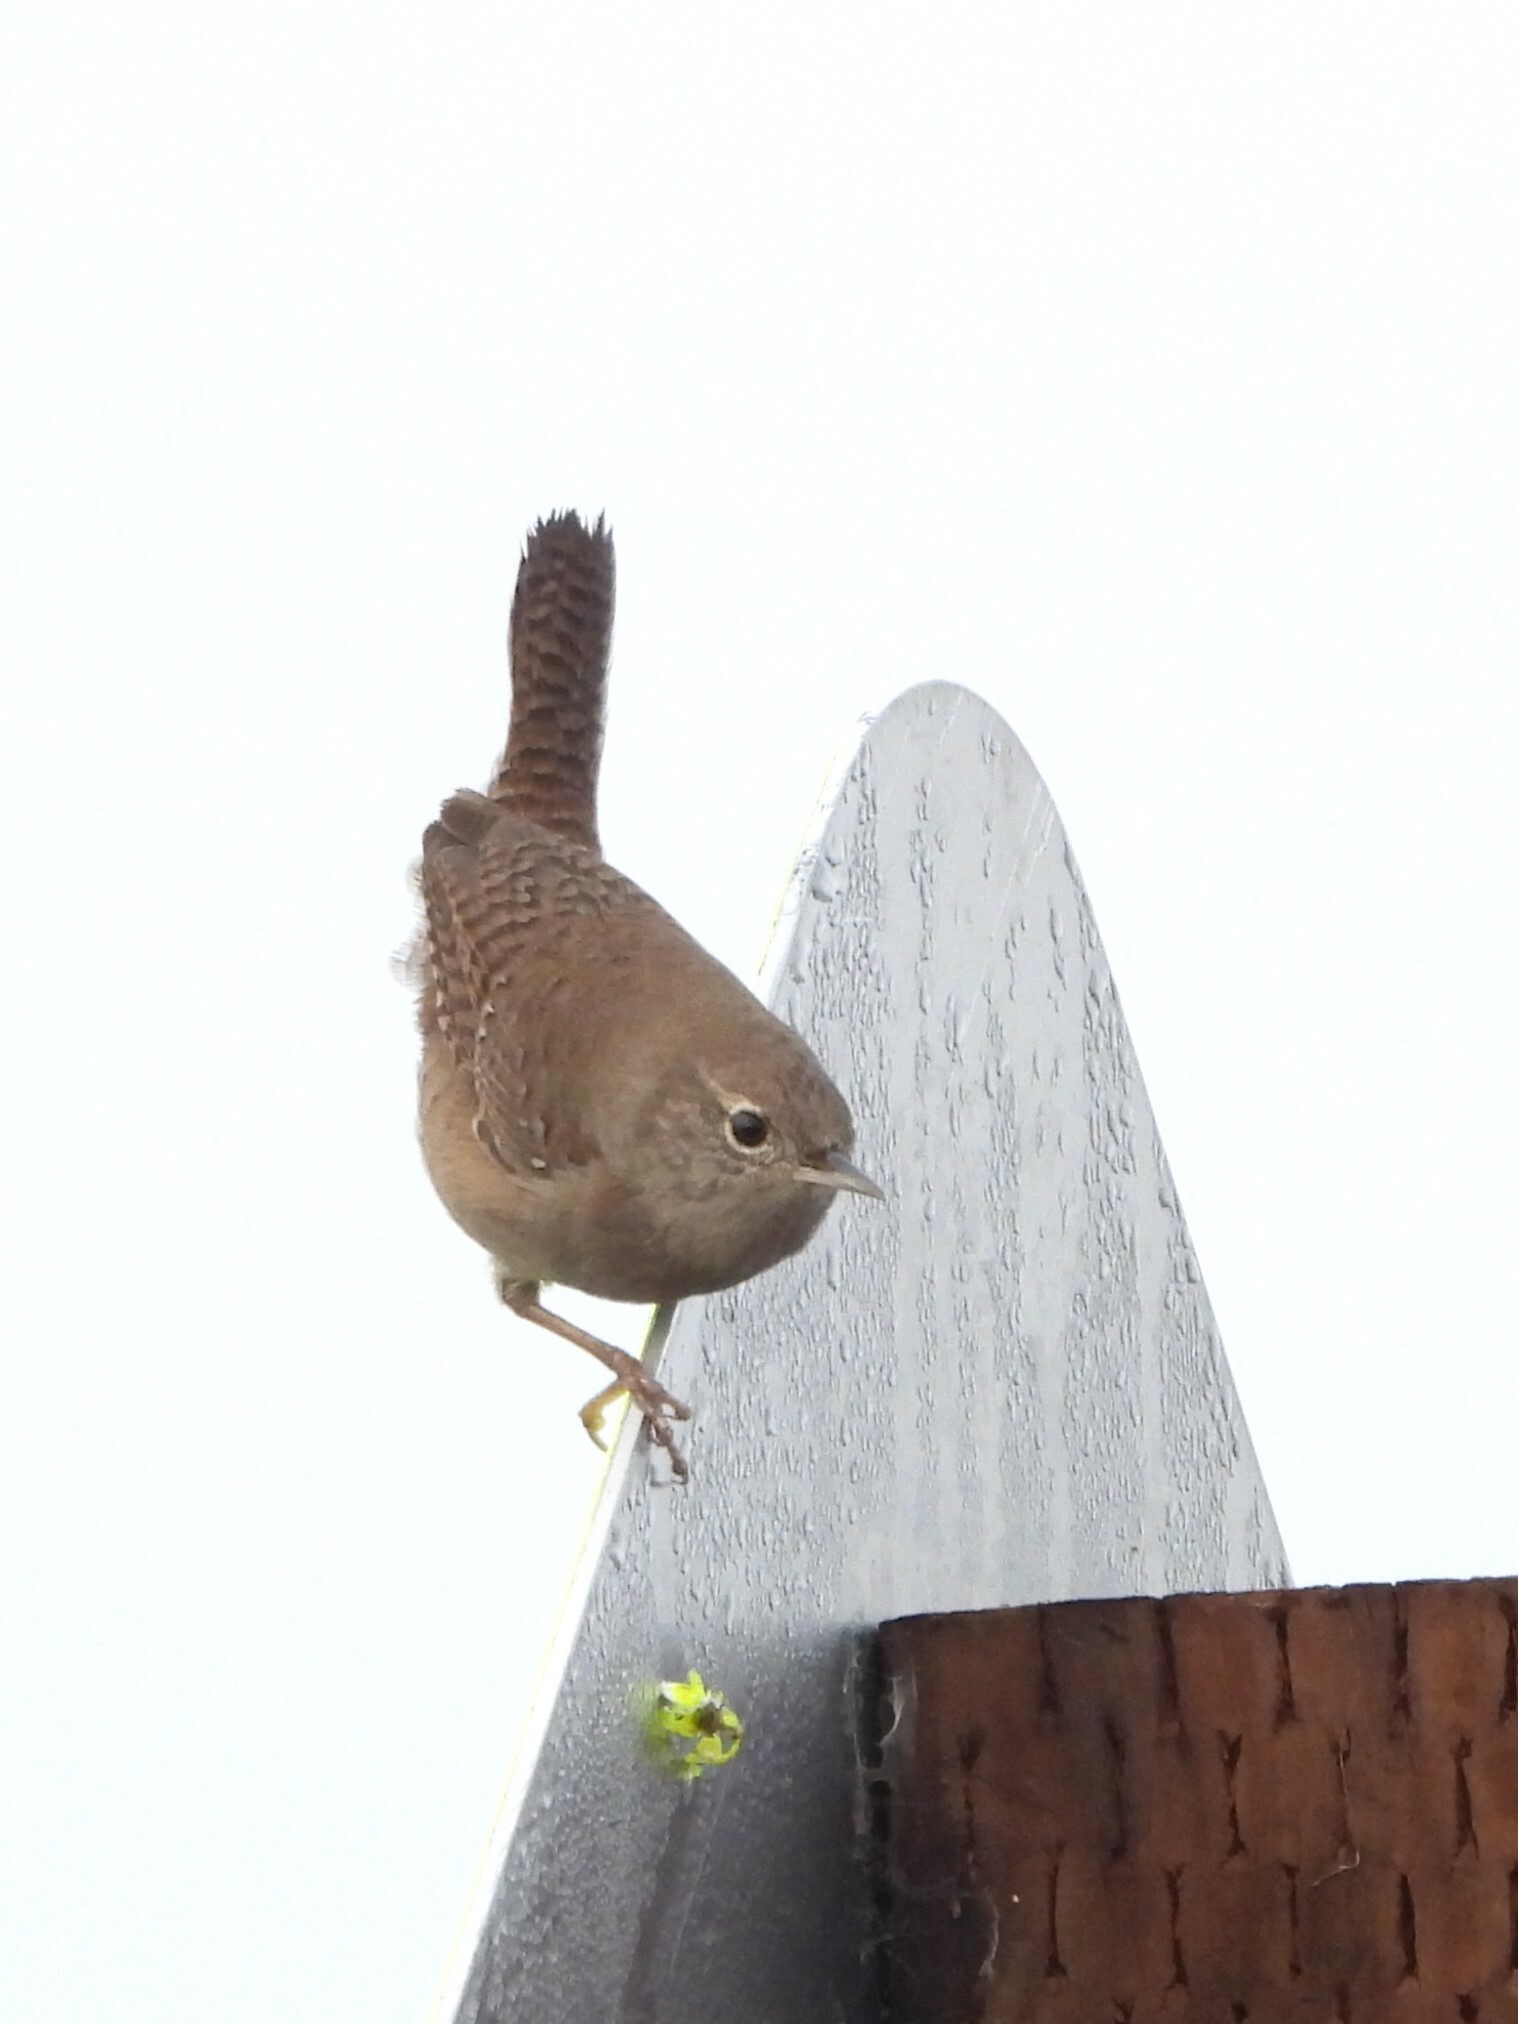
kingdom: Animalia
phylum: Chordata
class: Aves
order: Passeriformes
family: Troglodytidae
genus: Troglodytes
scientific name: Troglodytes aedon
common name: House wren
